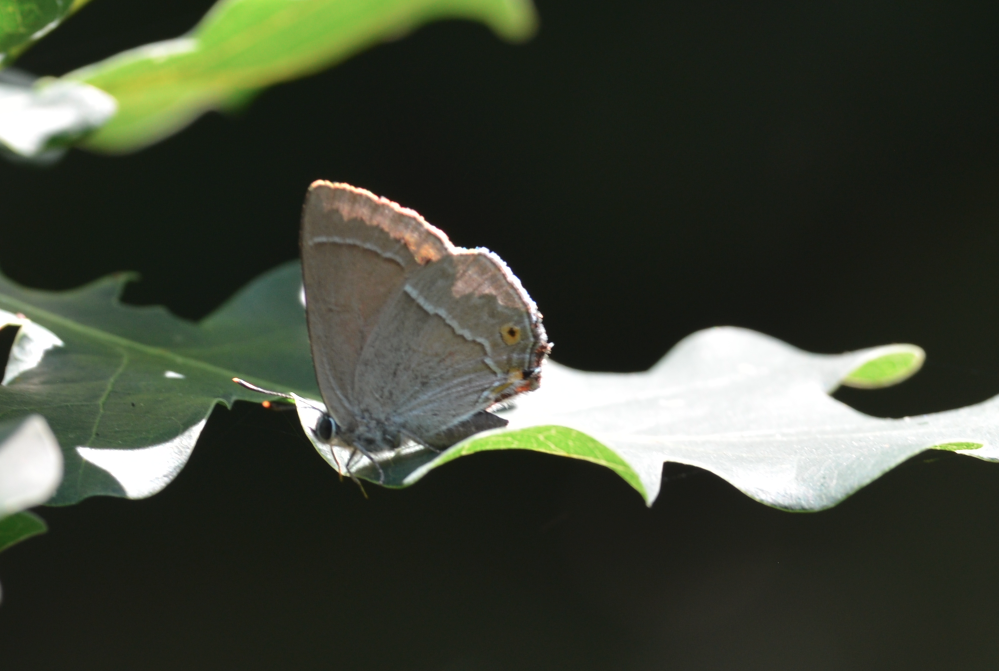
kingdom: Animalia
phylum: Arthropoda
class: Insecta
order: Lepidoptera
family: Lycaenidae
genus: Quercusia
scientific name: Quercusia quercus
